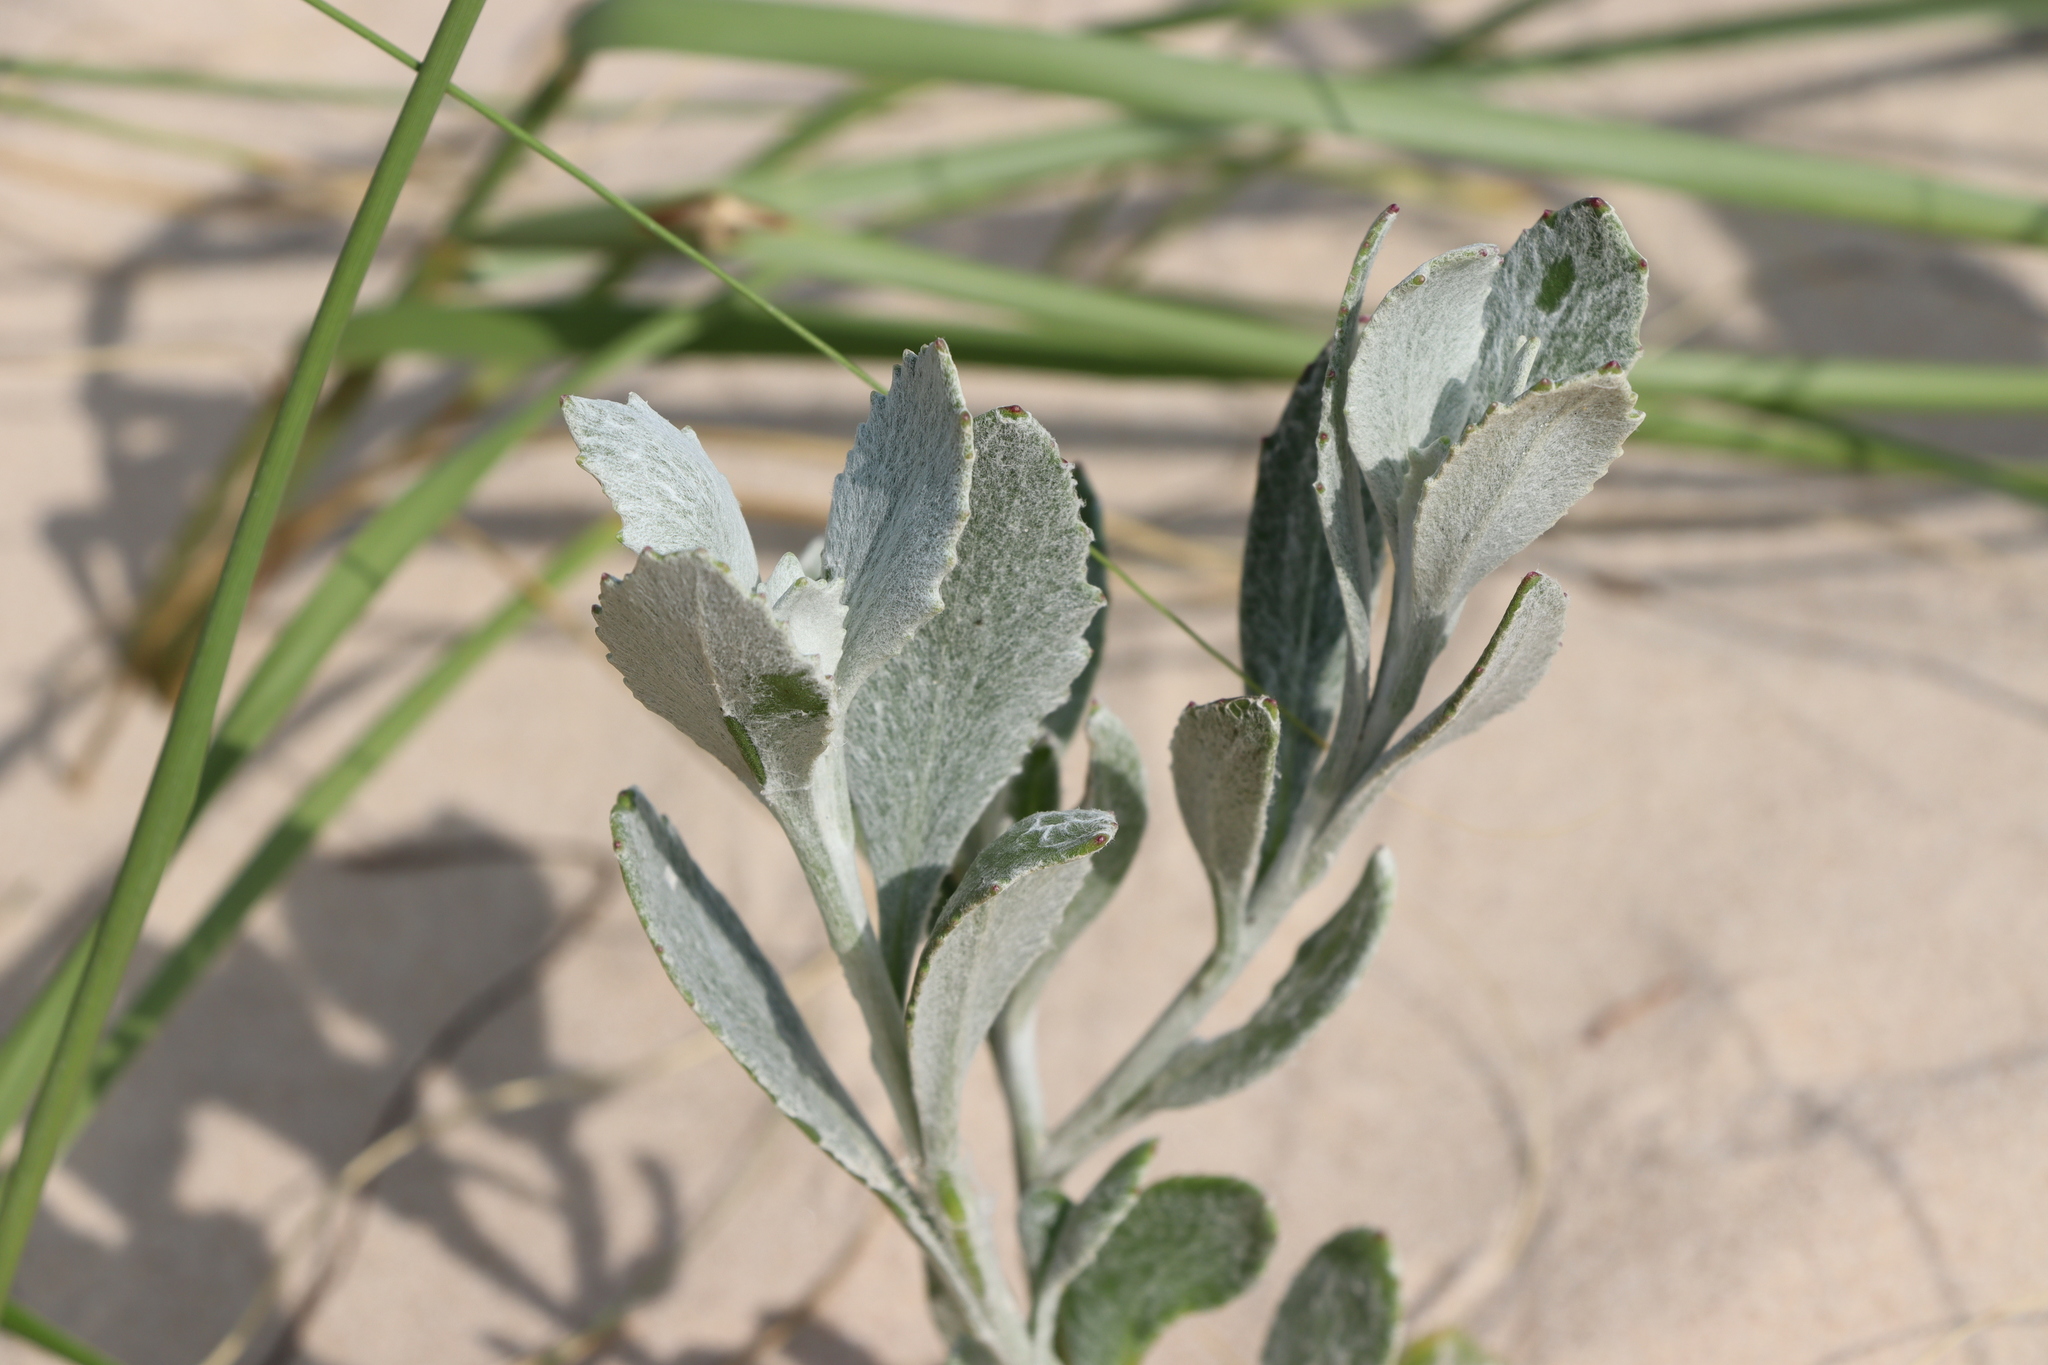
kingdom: Plantae
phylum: Tracheophyta
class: Magnoliopsida
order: Asterales
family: Asteraceae
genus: Senecio
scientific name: Senecio crassiflorus
